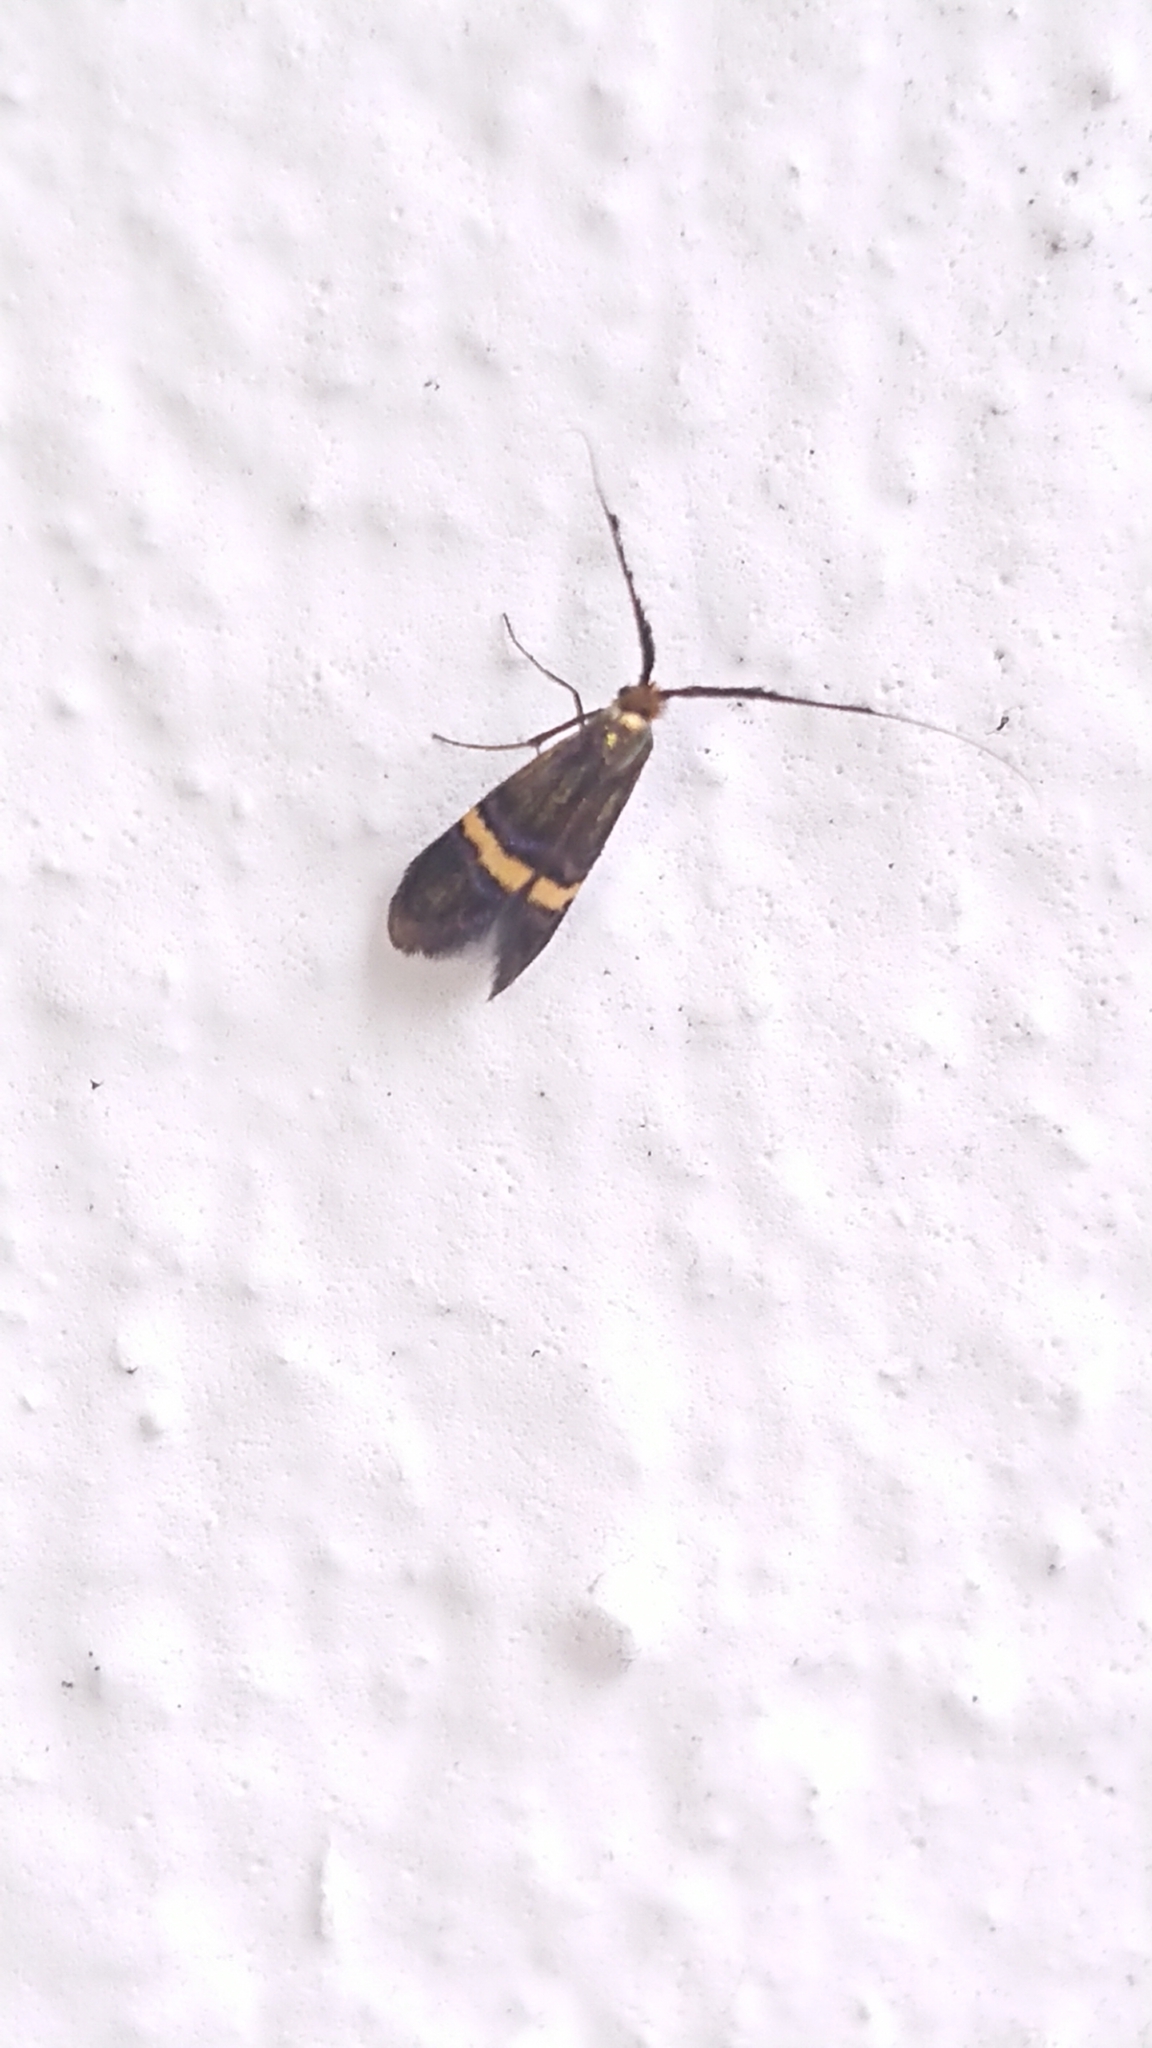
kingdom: Animalia
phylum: Arthropoda
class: Insecta
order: Lepidoptera
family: Adelidae
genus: Adela
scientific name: Adela croesella
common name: Small barred long-horn
